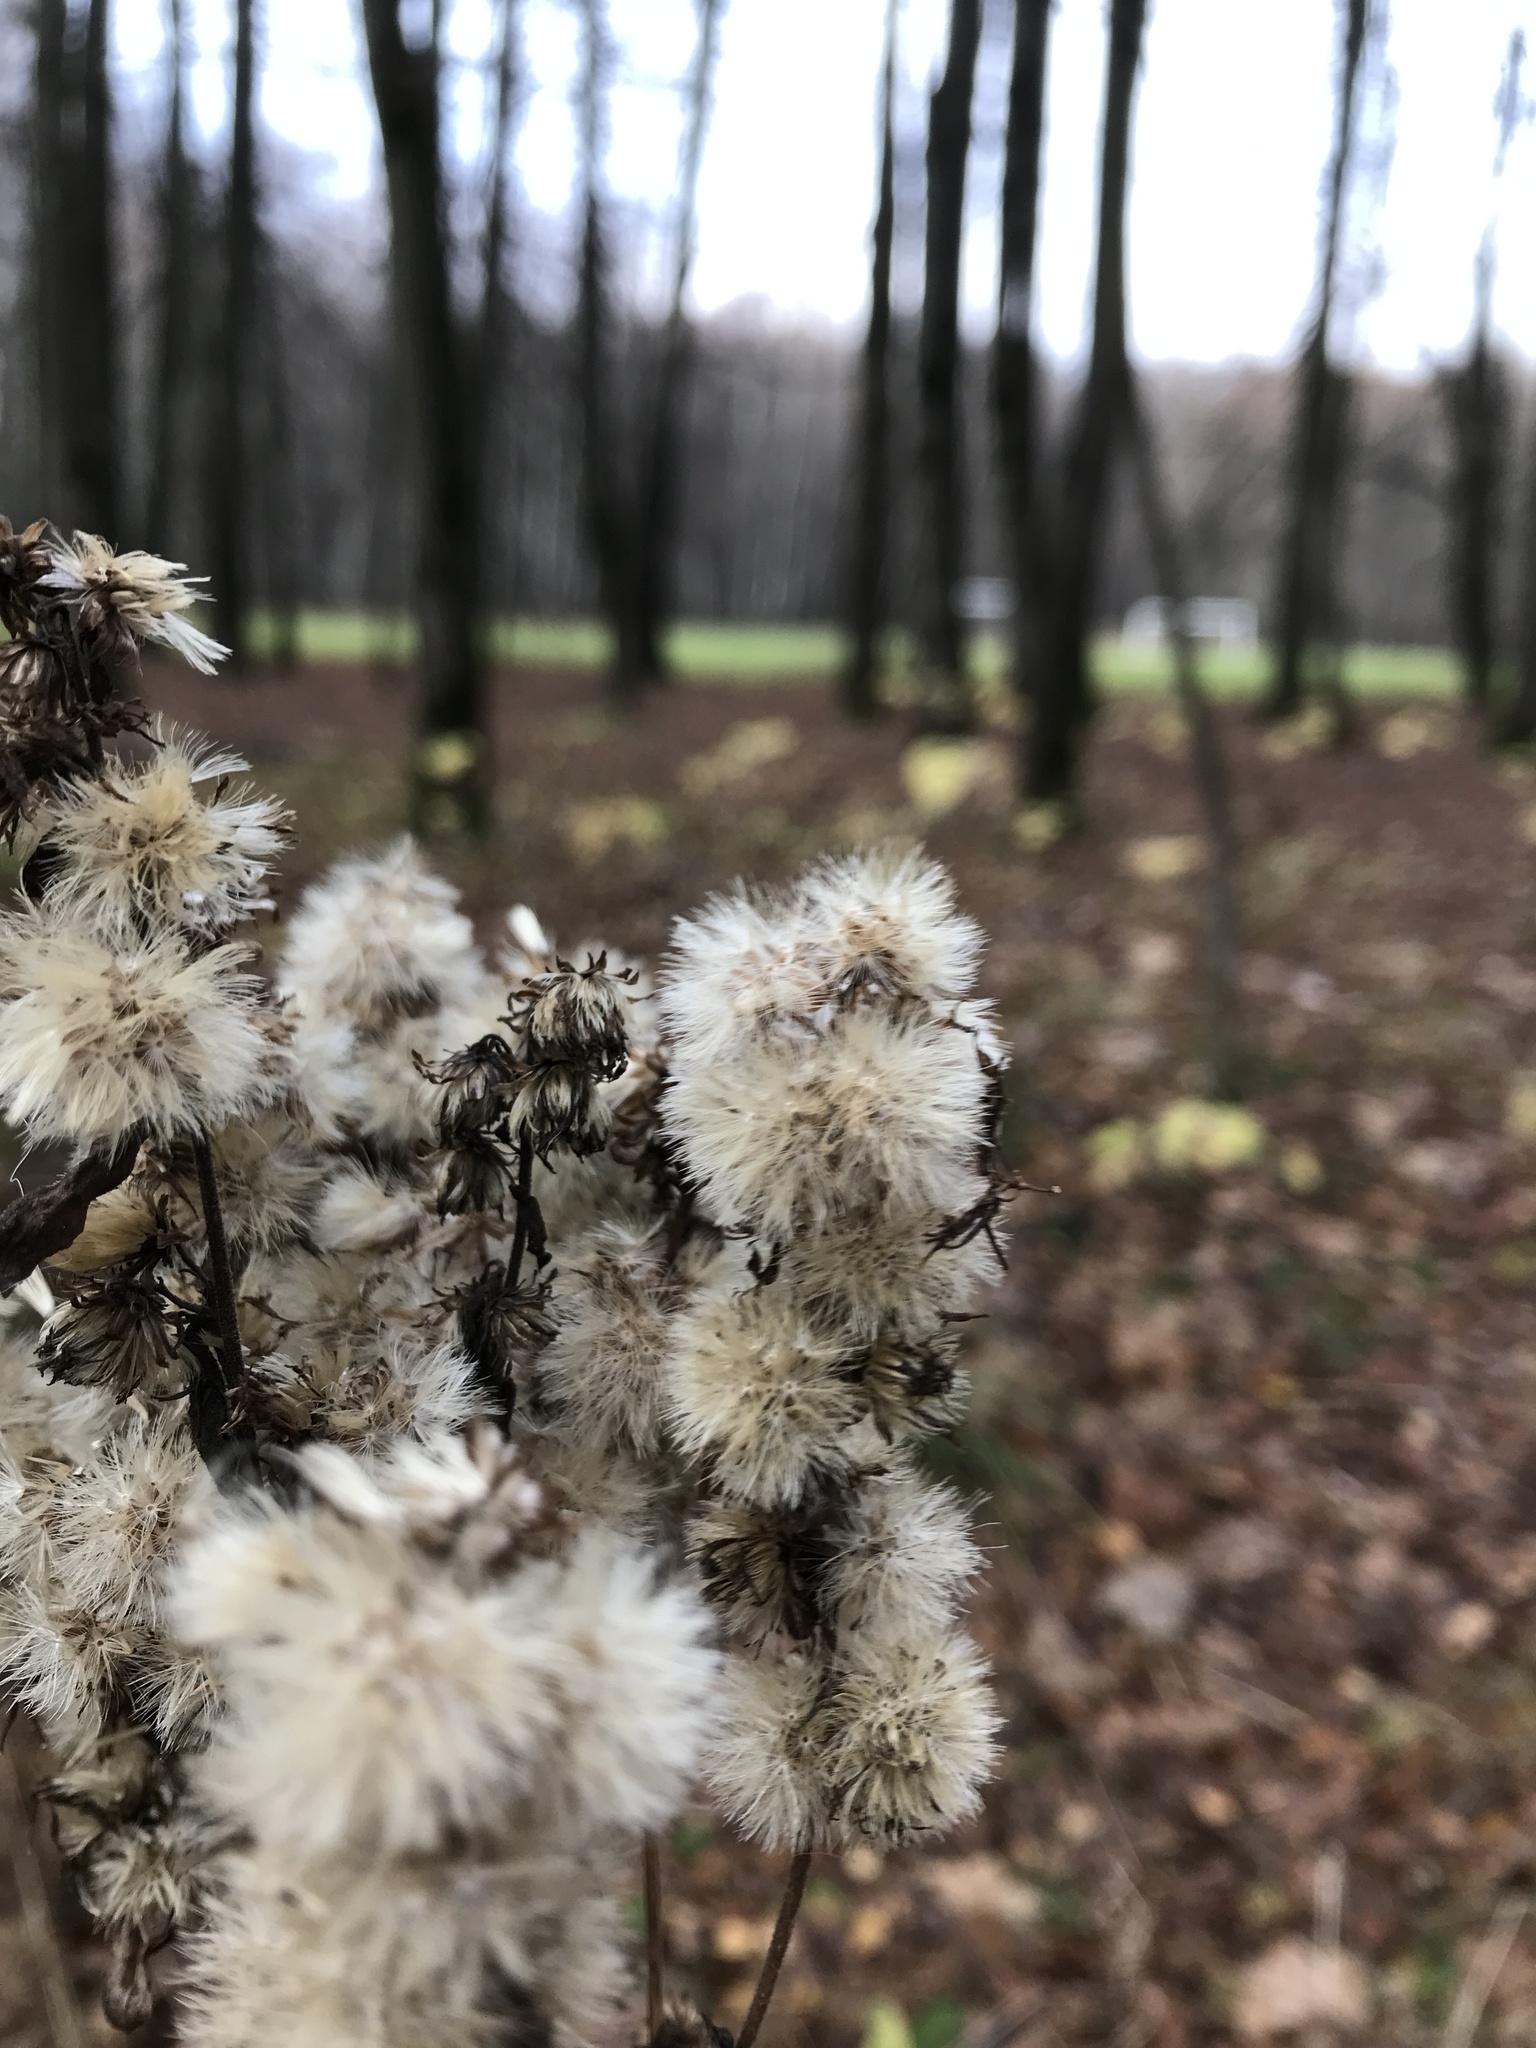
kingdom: Plantae
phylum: Tracheophyta
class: Magnoliopsida
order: Asterales
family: Asteraceae
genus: Solidago
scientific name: Solidago virgaurea
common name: Goldenrod
